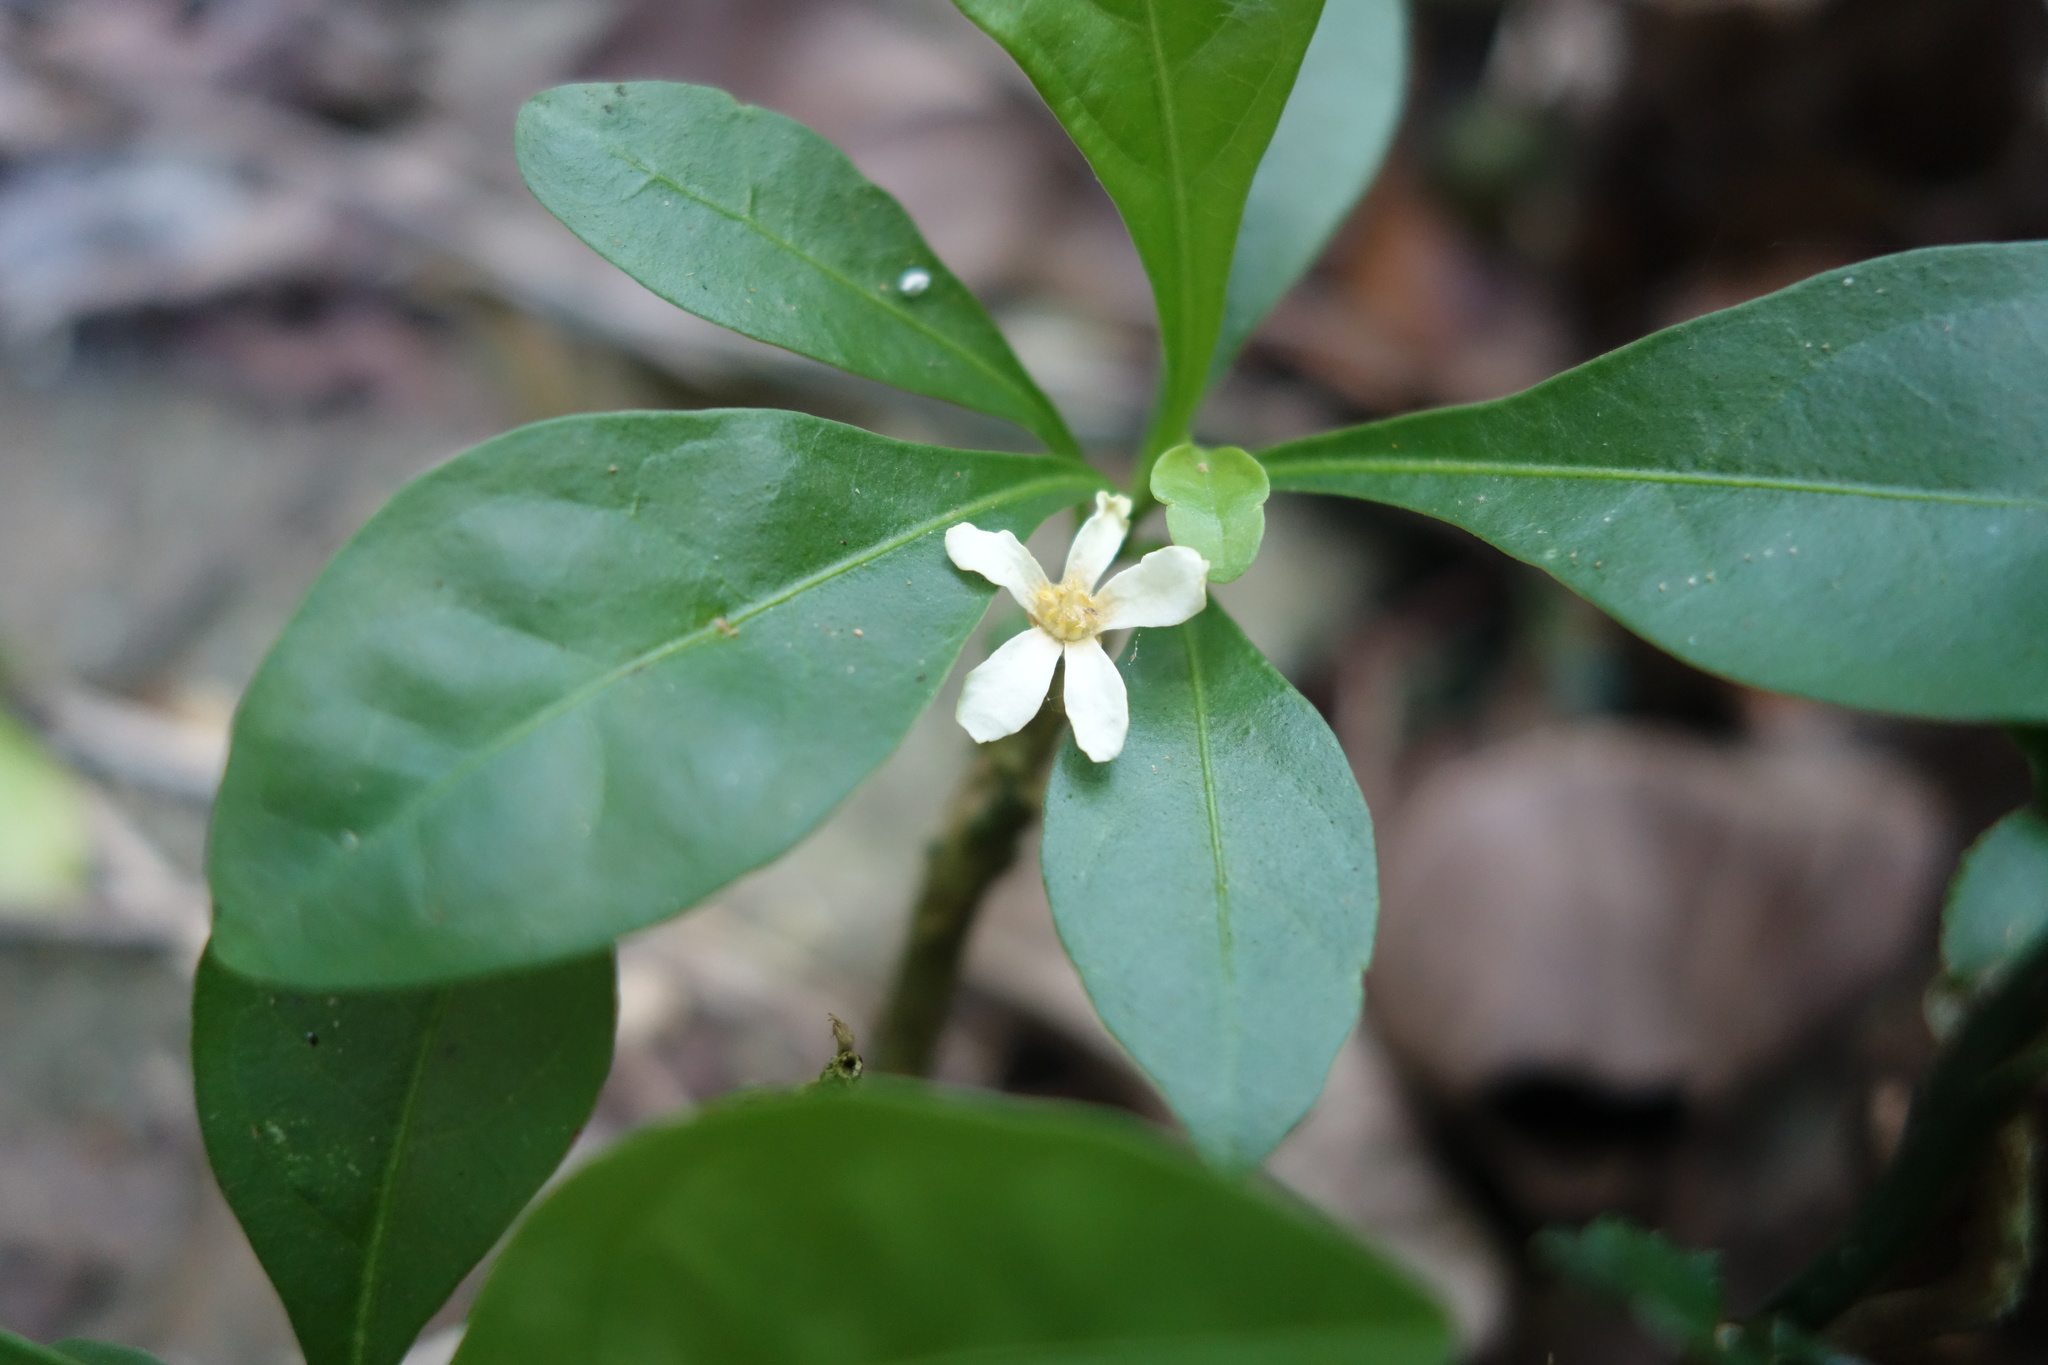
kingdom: Plantae
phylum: Tracheophyta
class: Magnoliopsida
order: Sapindales
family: Rutaceae
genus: Murraya
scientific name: Murraya paniculata
